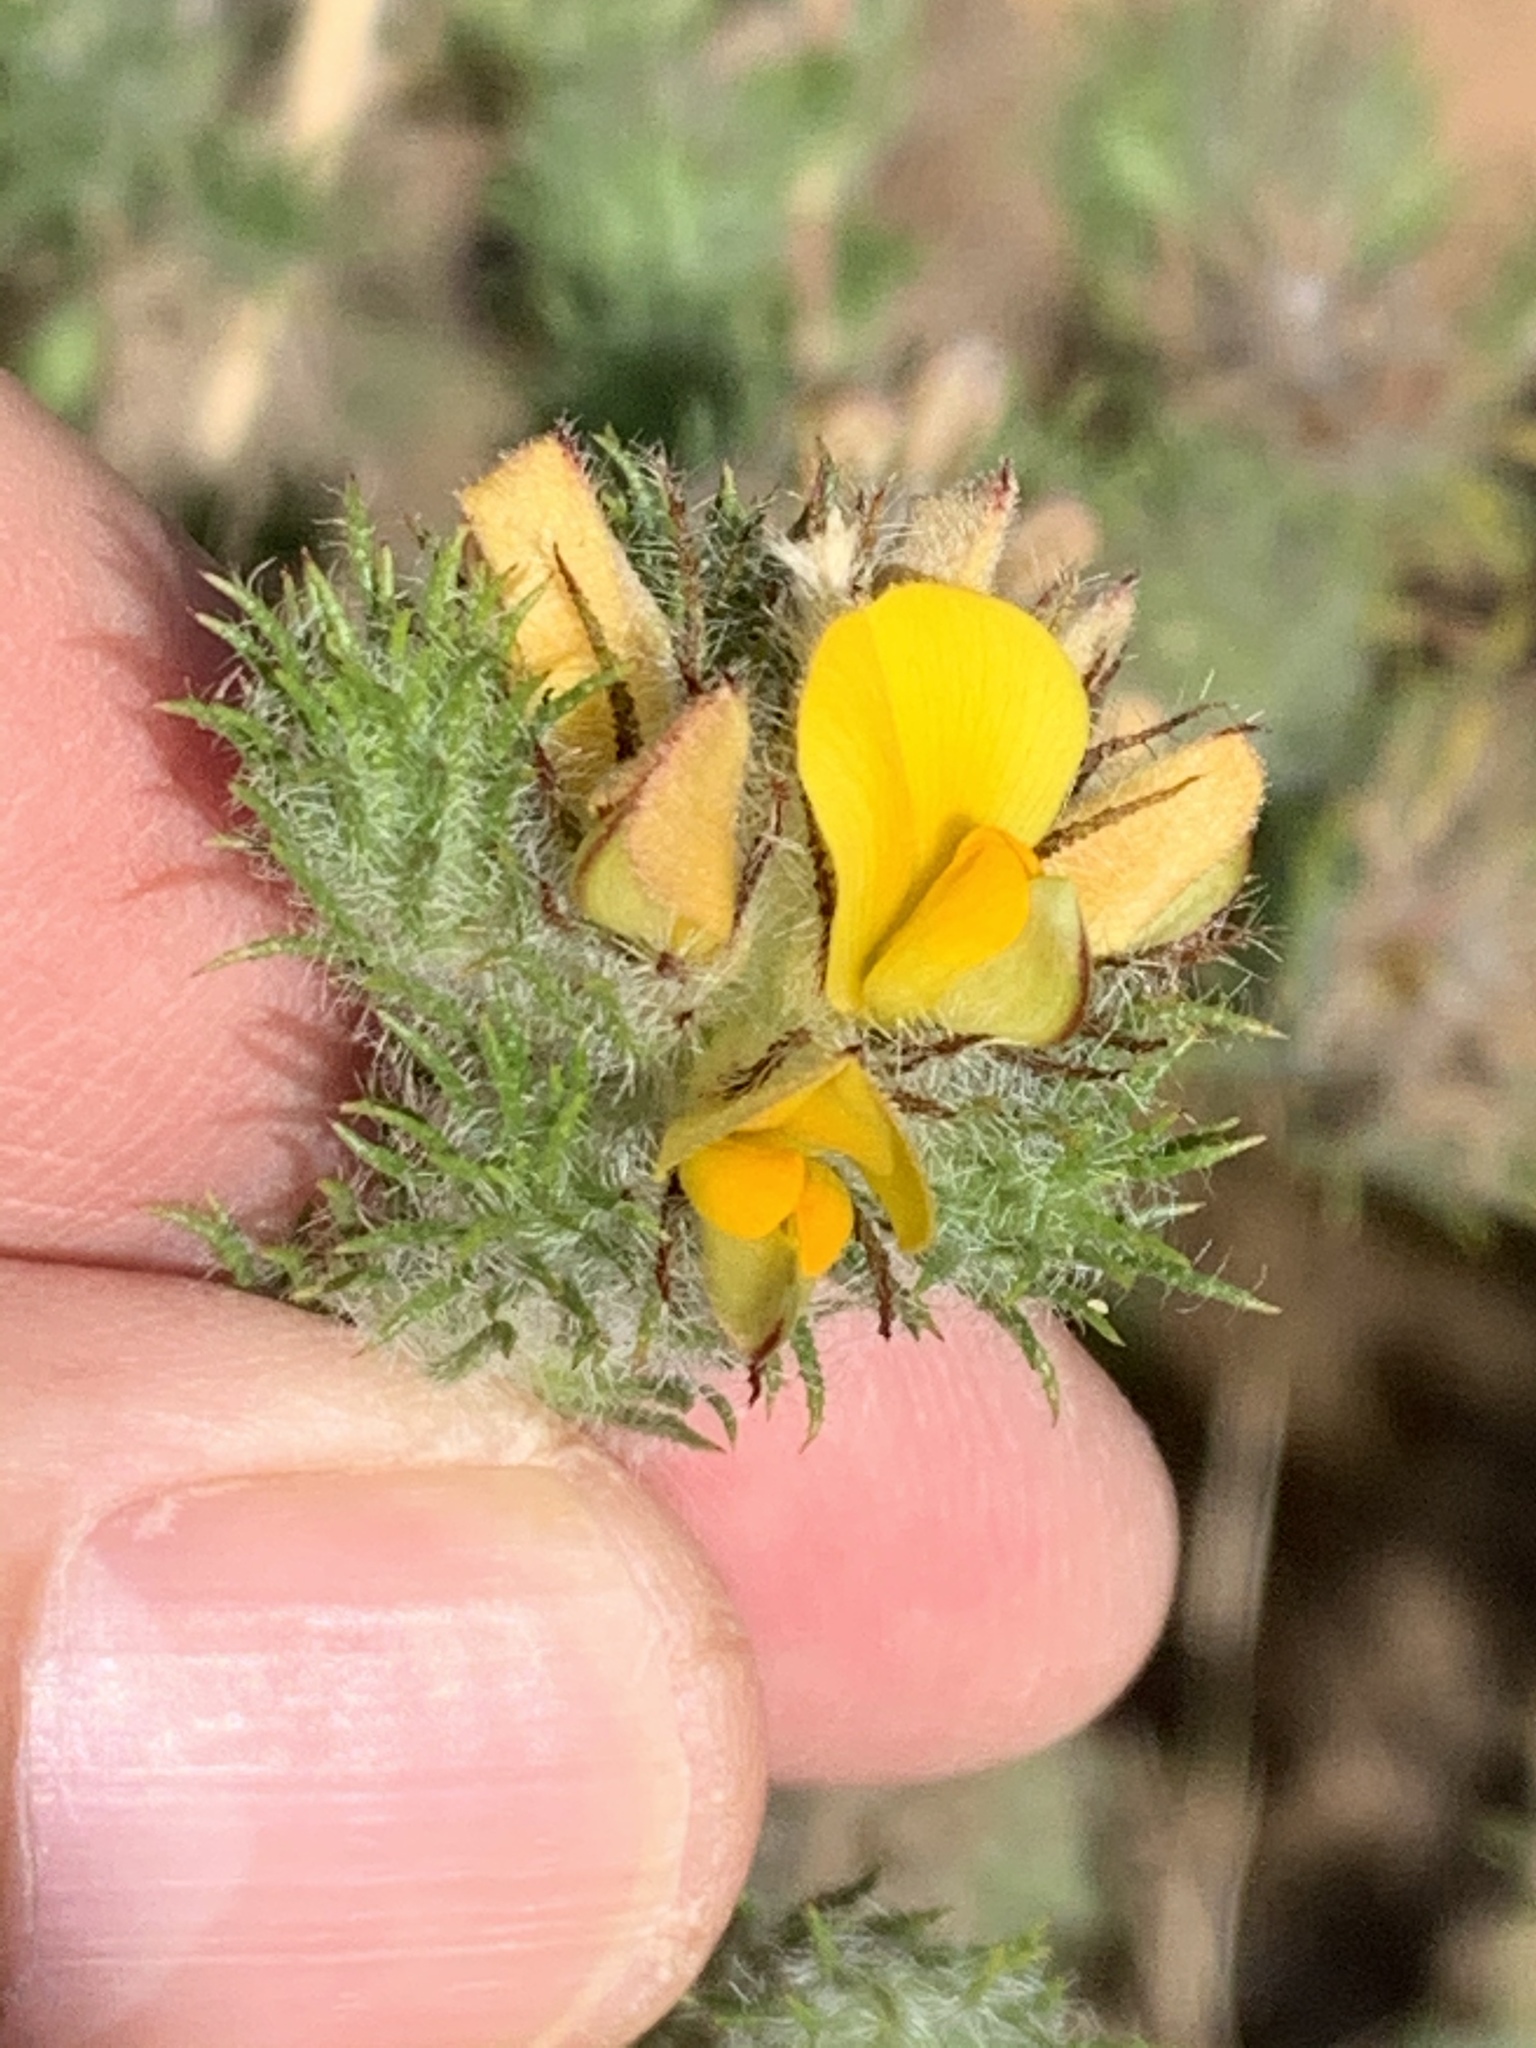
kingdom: Plantae
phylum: Tracheophyta
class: Magnoliopsida
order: Fabales
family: Fabaceae
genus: Aspalathus
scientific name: Aspalathus araneosa
